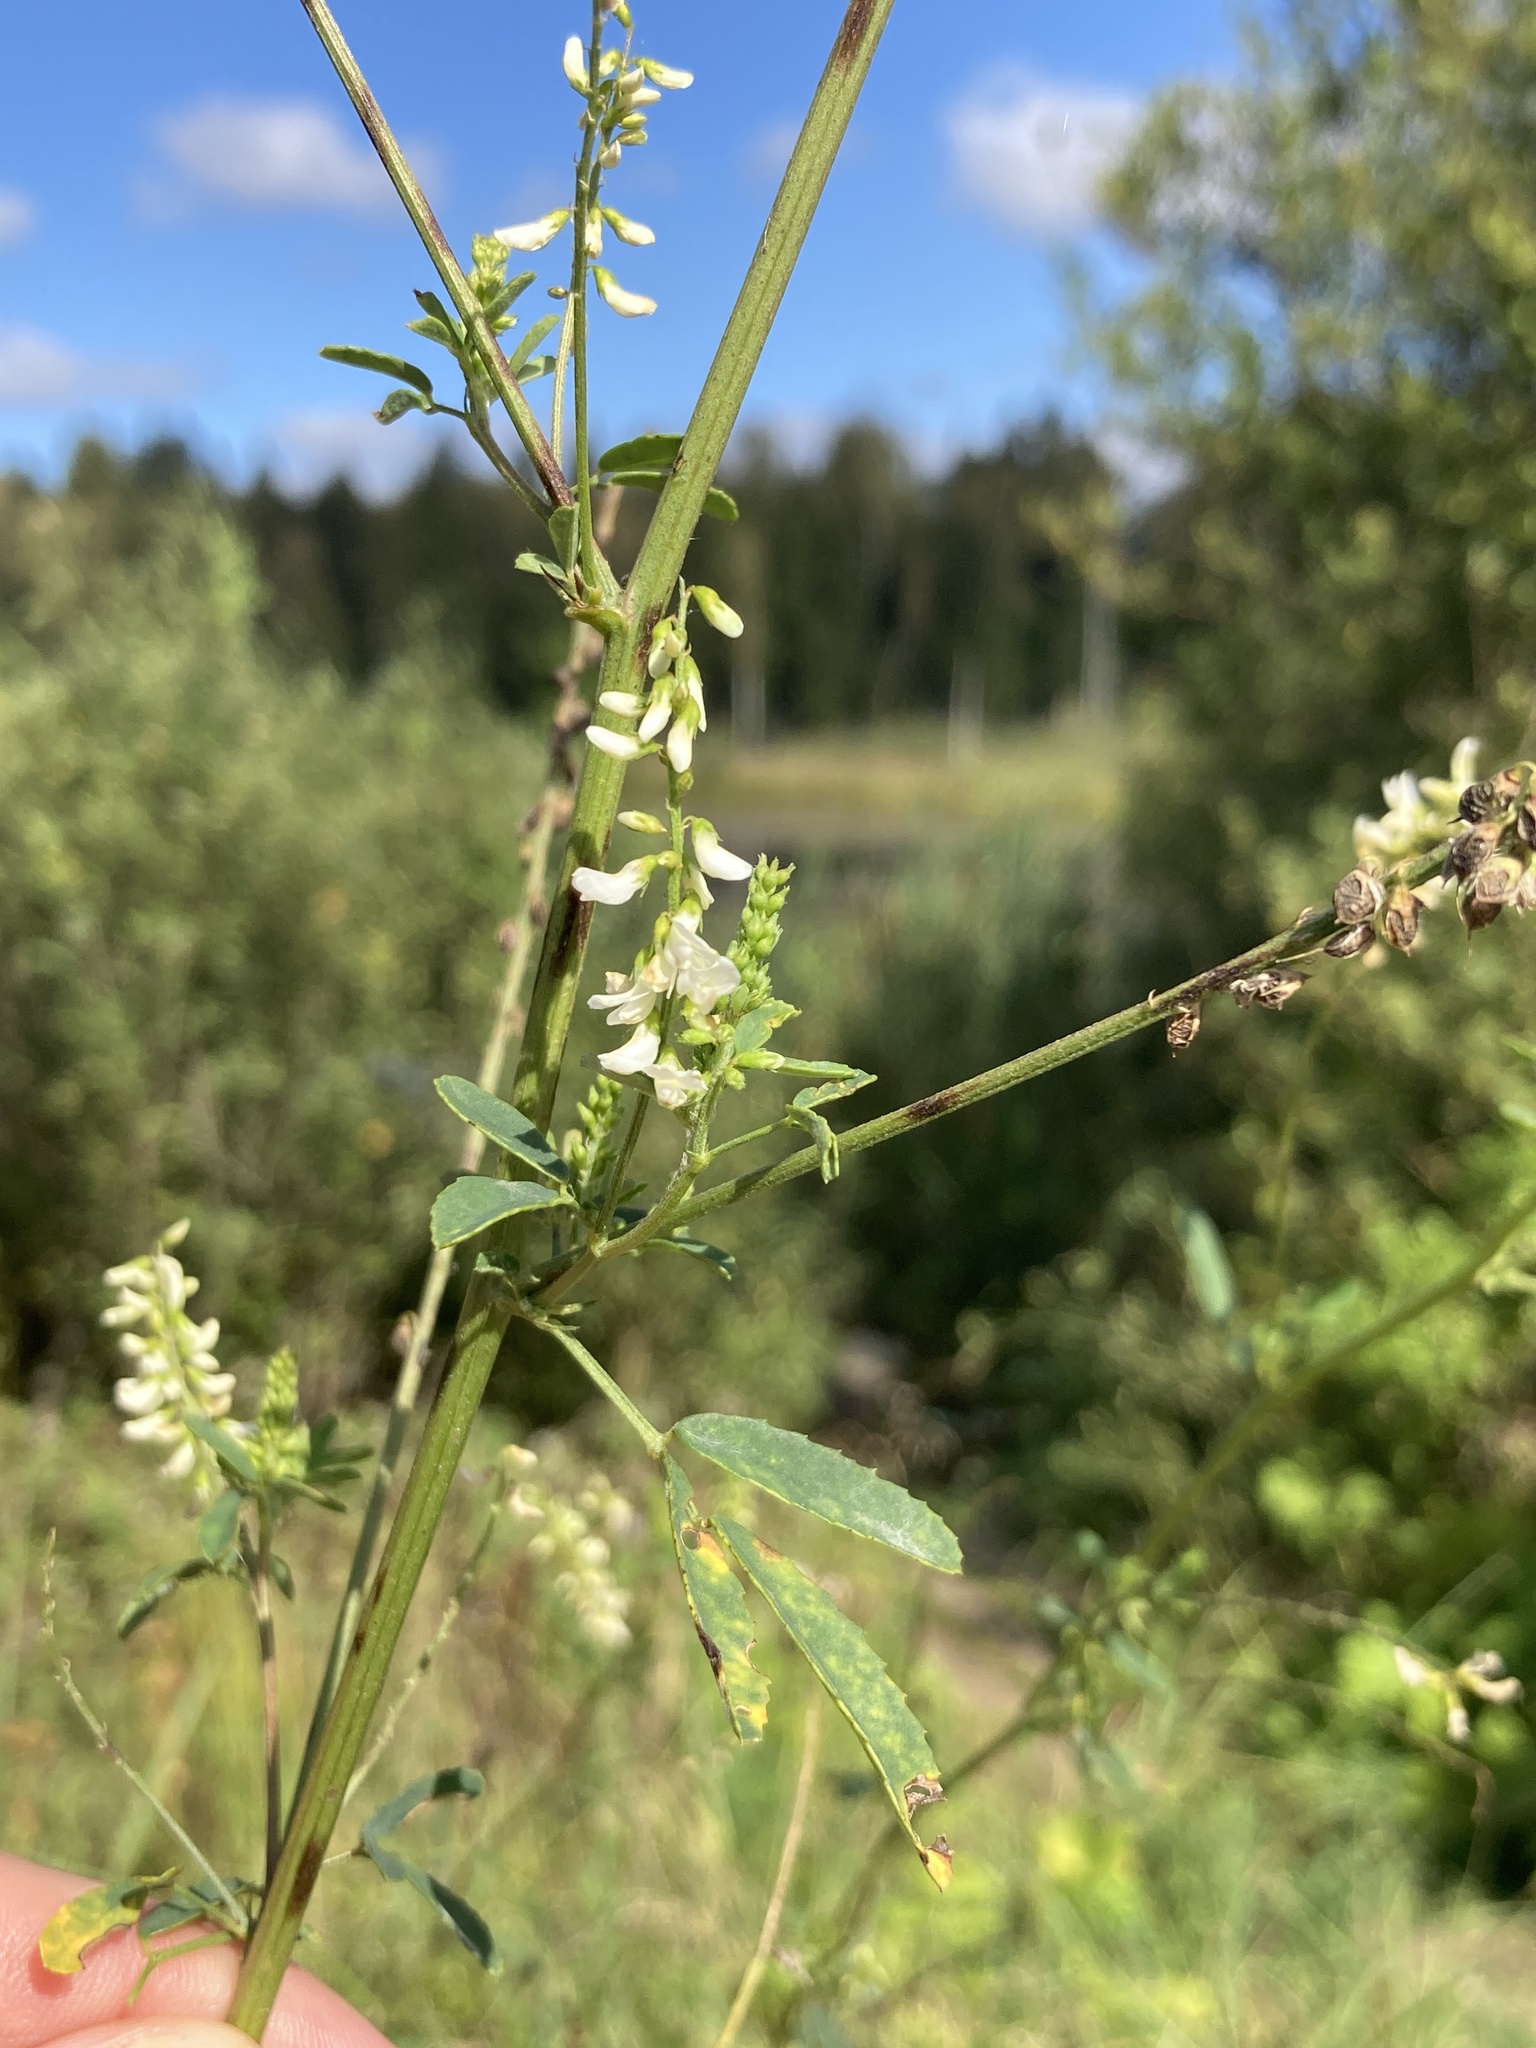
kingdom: Plantae
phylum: Tracheophyta
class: Magnoliopsida
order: Fabales
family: Fabaceae
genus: Melilotus
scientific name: Melilotus albus
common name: White melilot
